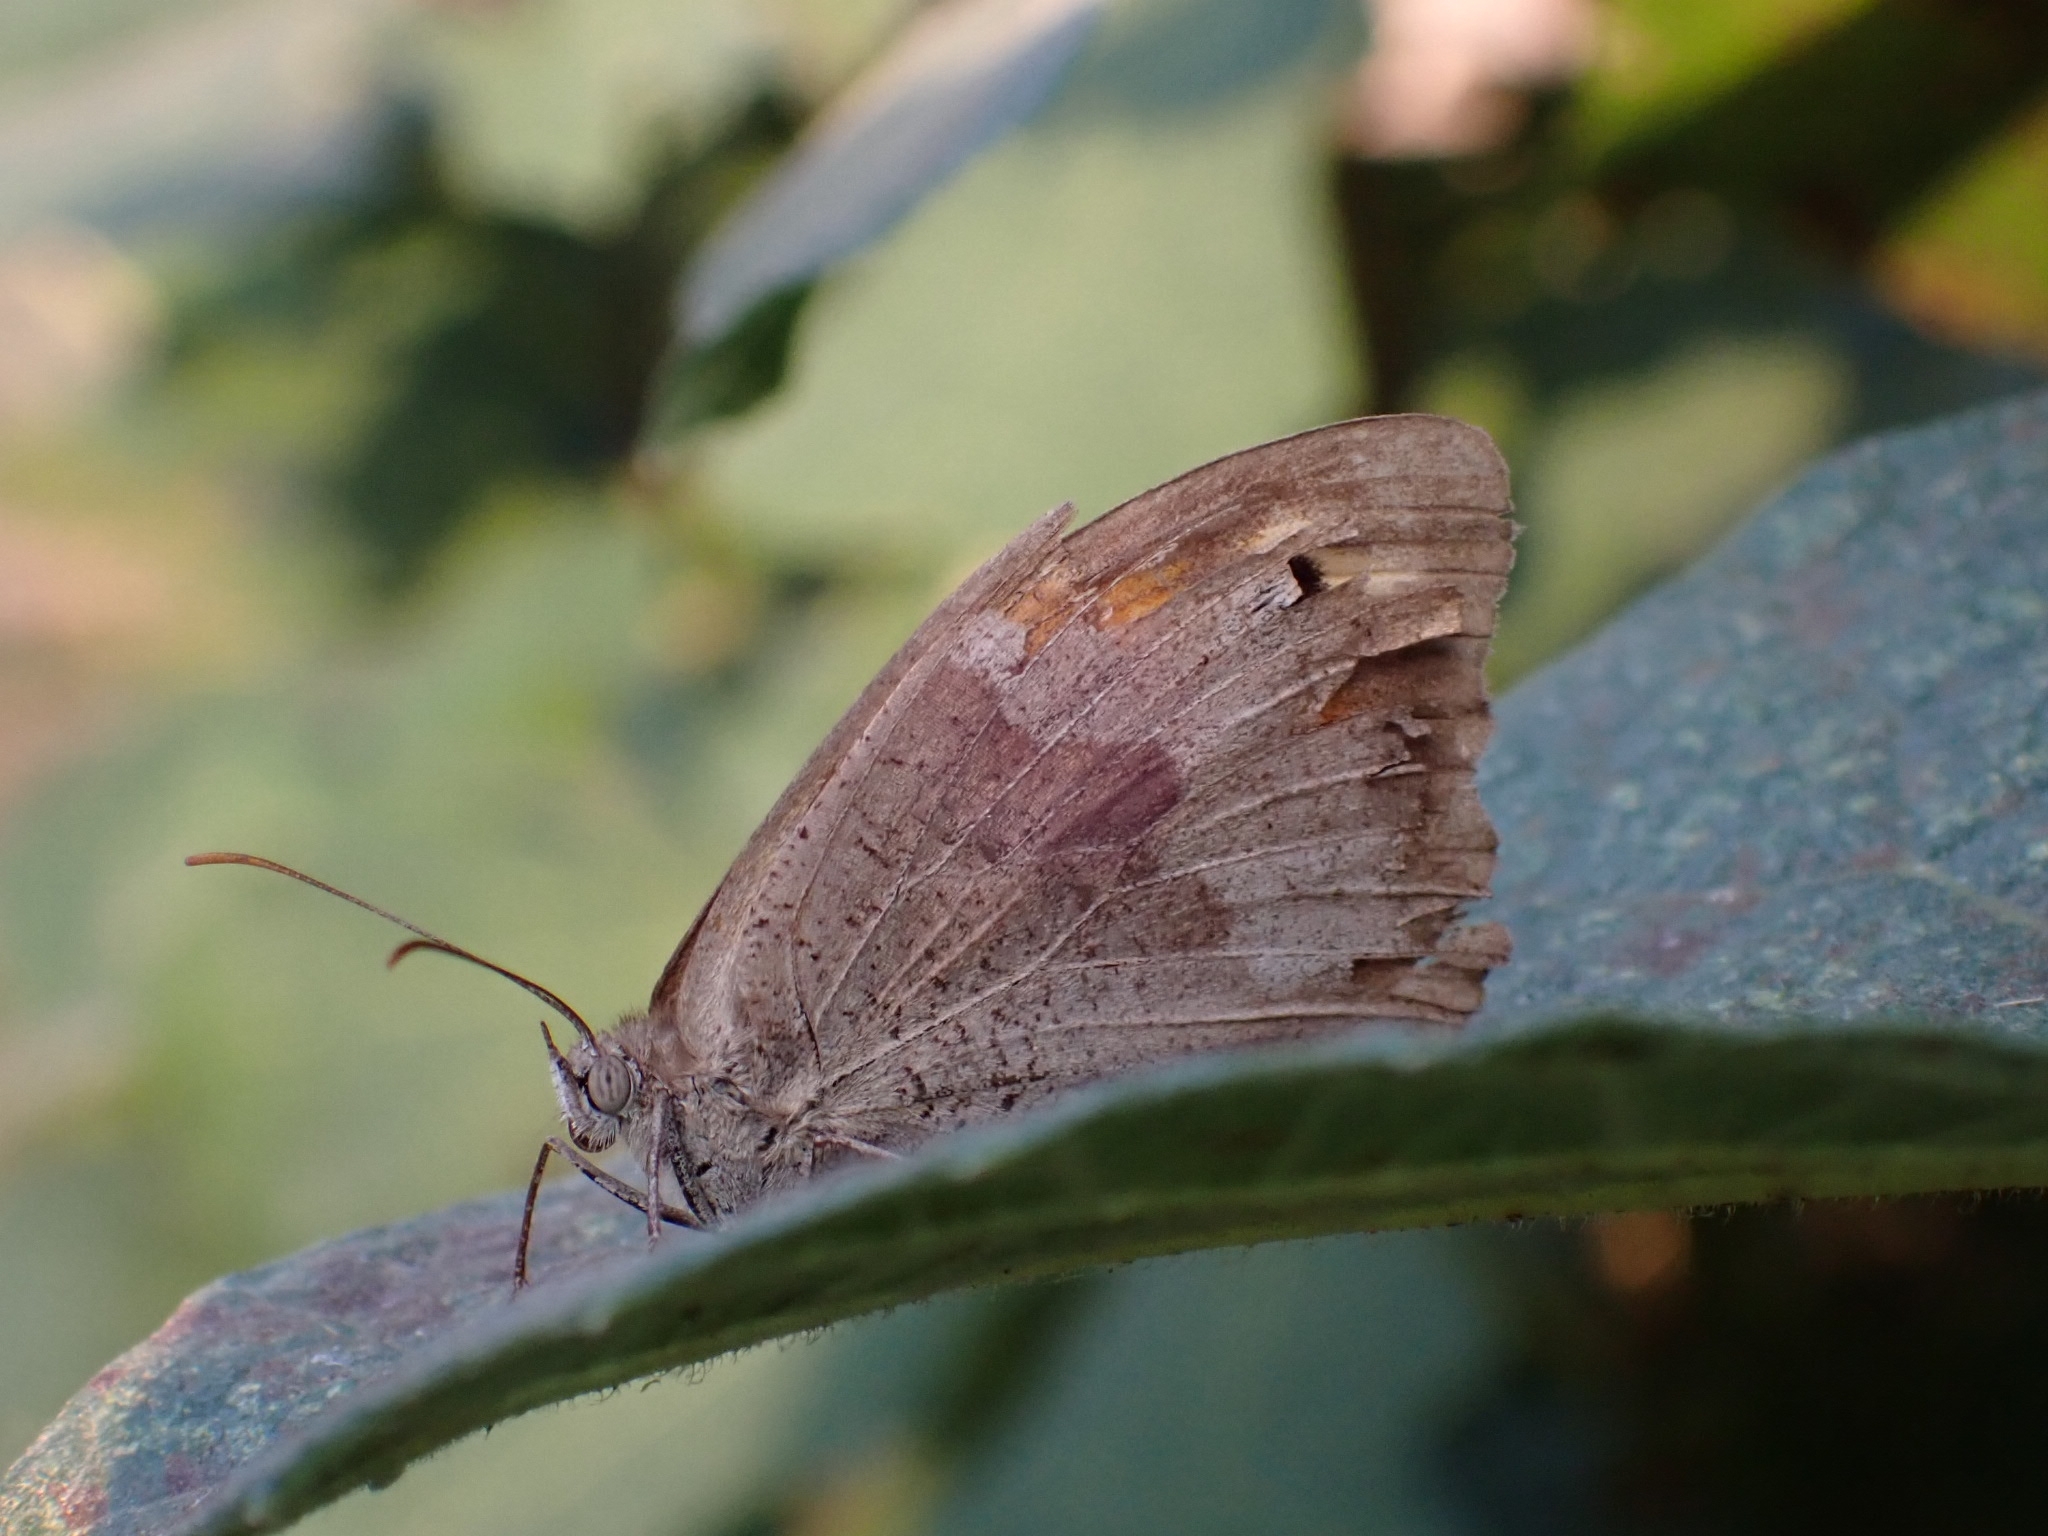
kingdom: Animalia
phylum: Arthropoda
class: Insecta
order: Lepidoptera
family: Nymphalidae
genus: Maniola
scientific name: Maniola jurtina
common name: Meadow brown
